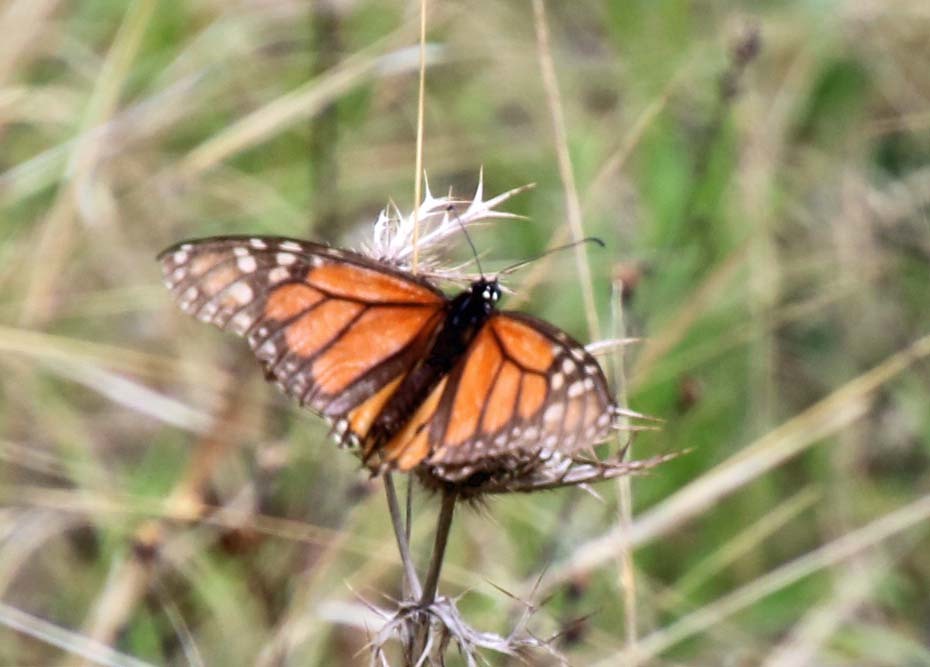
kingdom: Animalia
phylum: Arthropoda
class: Insecta
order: Lepidoptera
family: Nymphalidae
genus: Danaus
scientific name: Danaus plexippus
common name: Monarch
